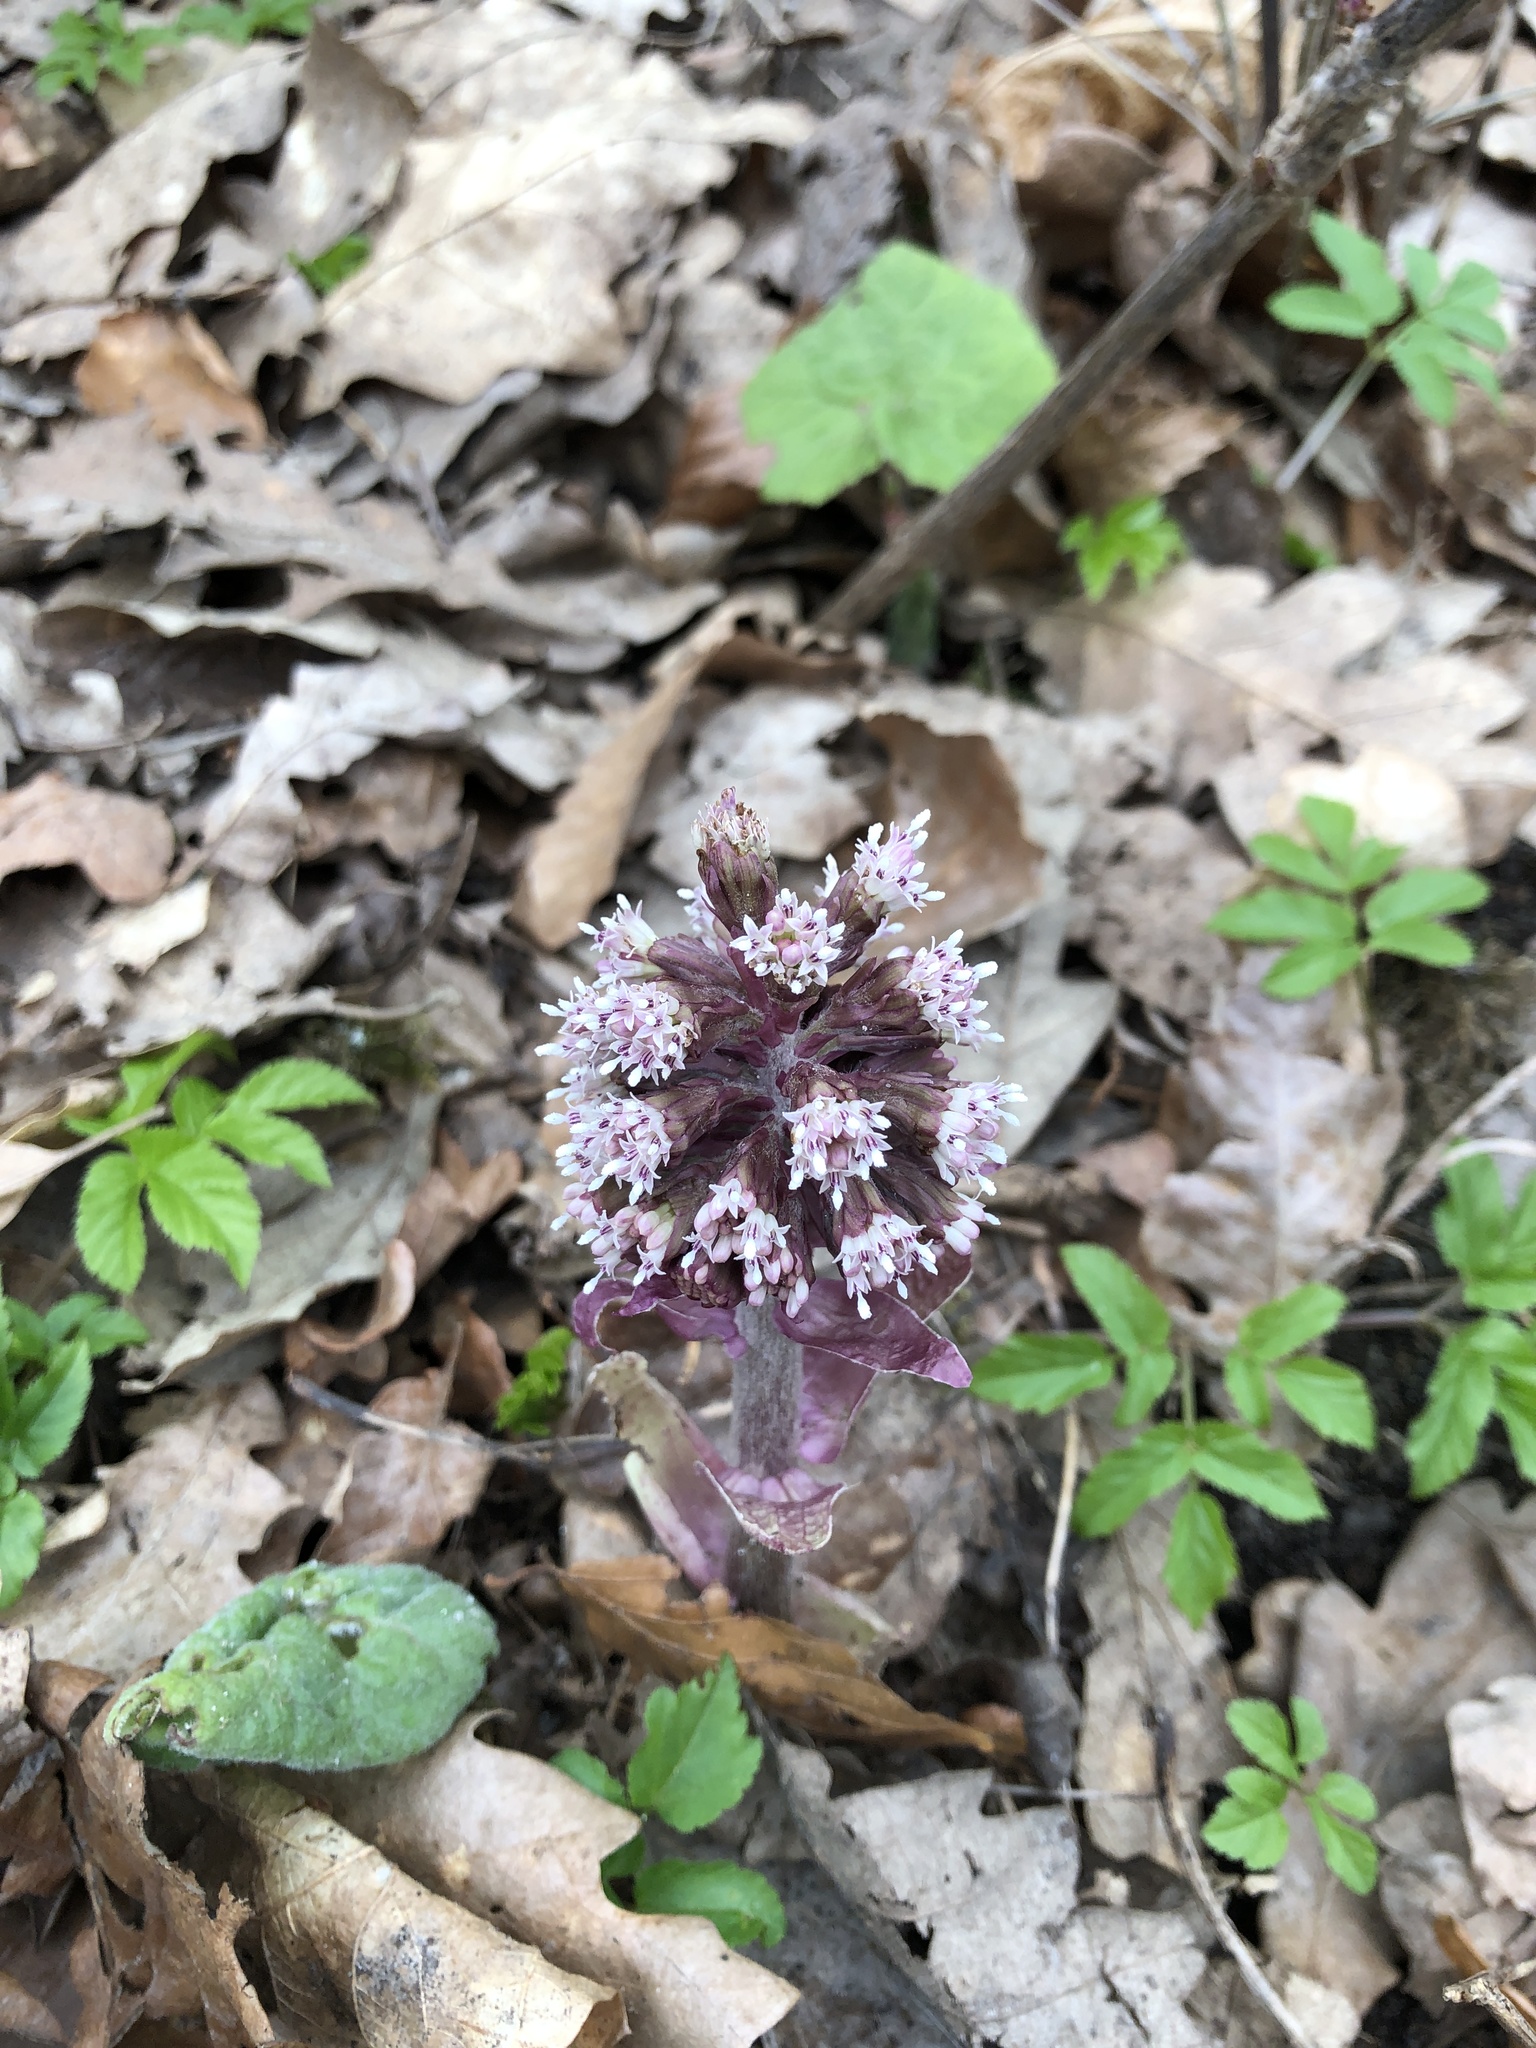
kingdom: Plantae
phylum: Tracheophyta
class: Magnoliopsida
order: Asterales
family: Asteraceae
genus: Petasites
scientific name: Petasites hybridus
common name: Butterbur
